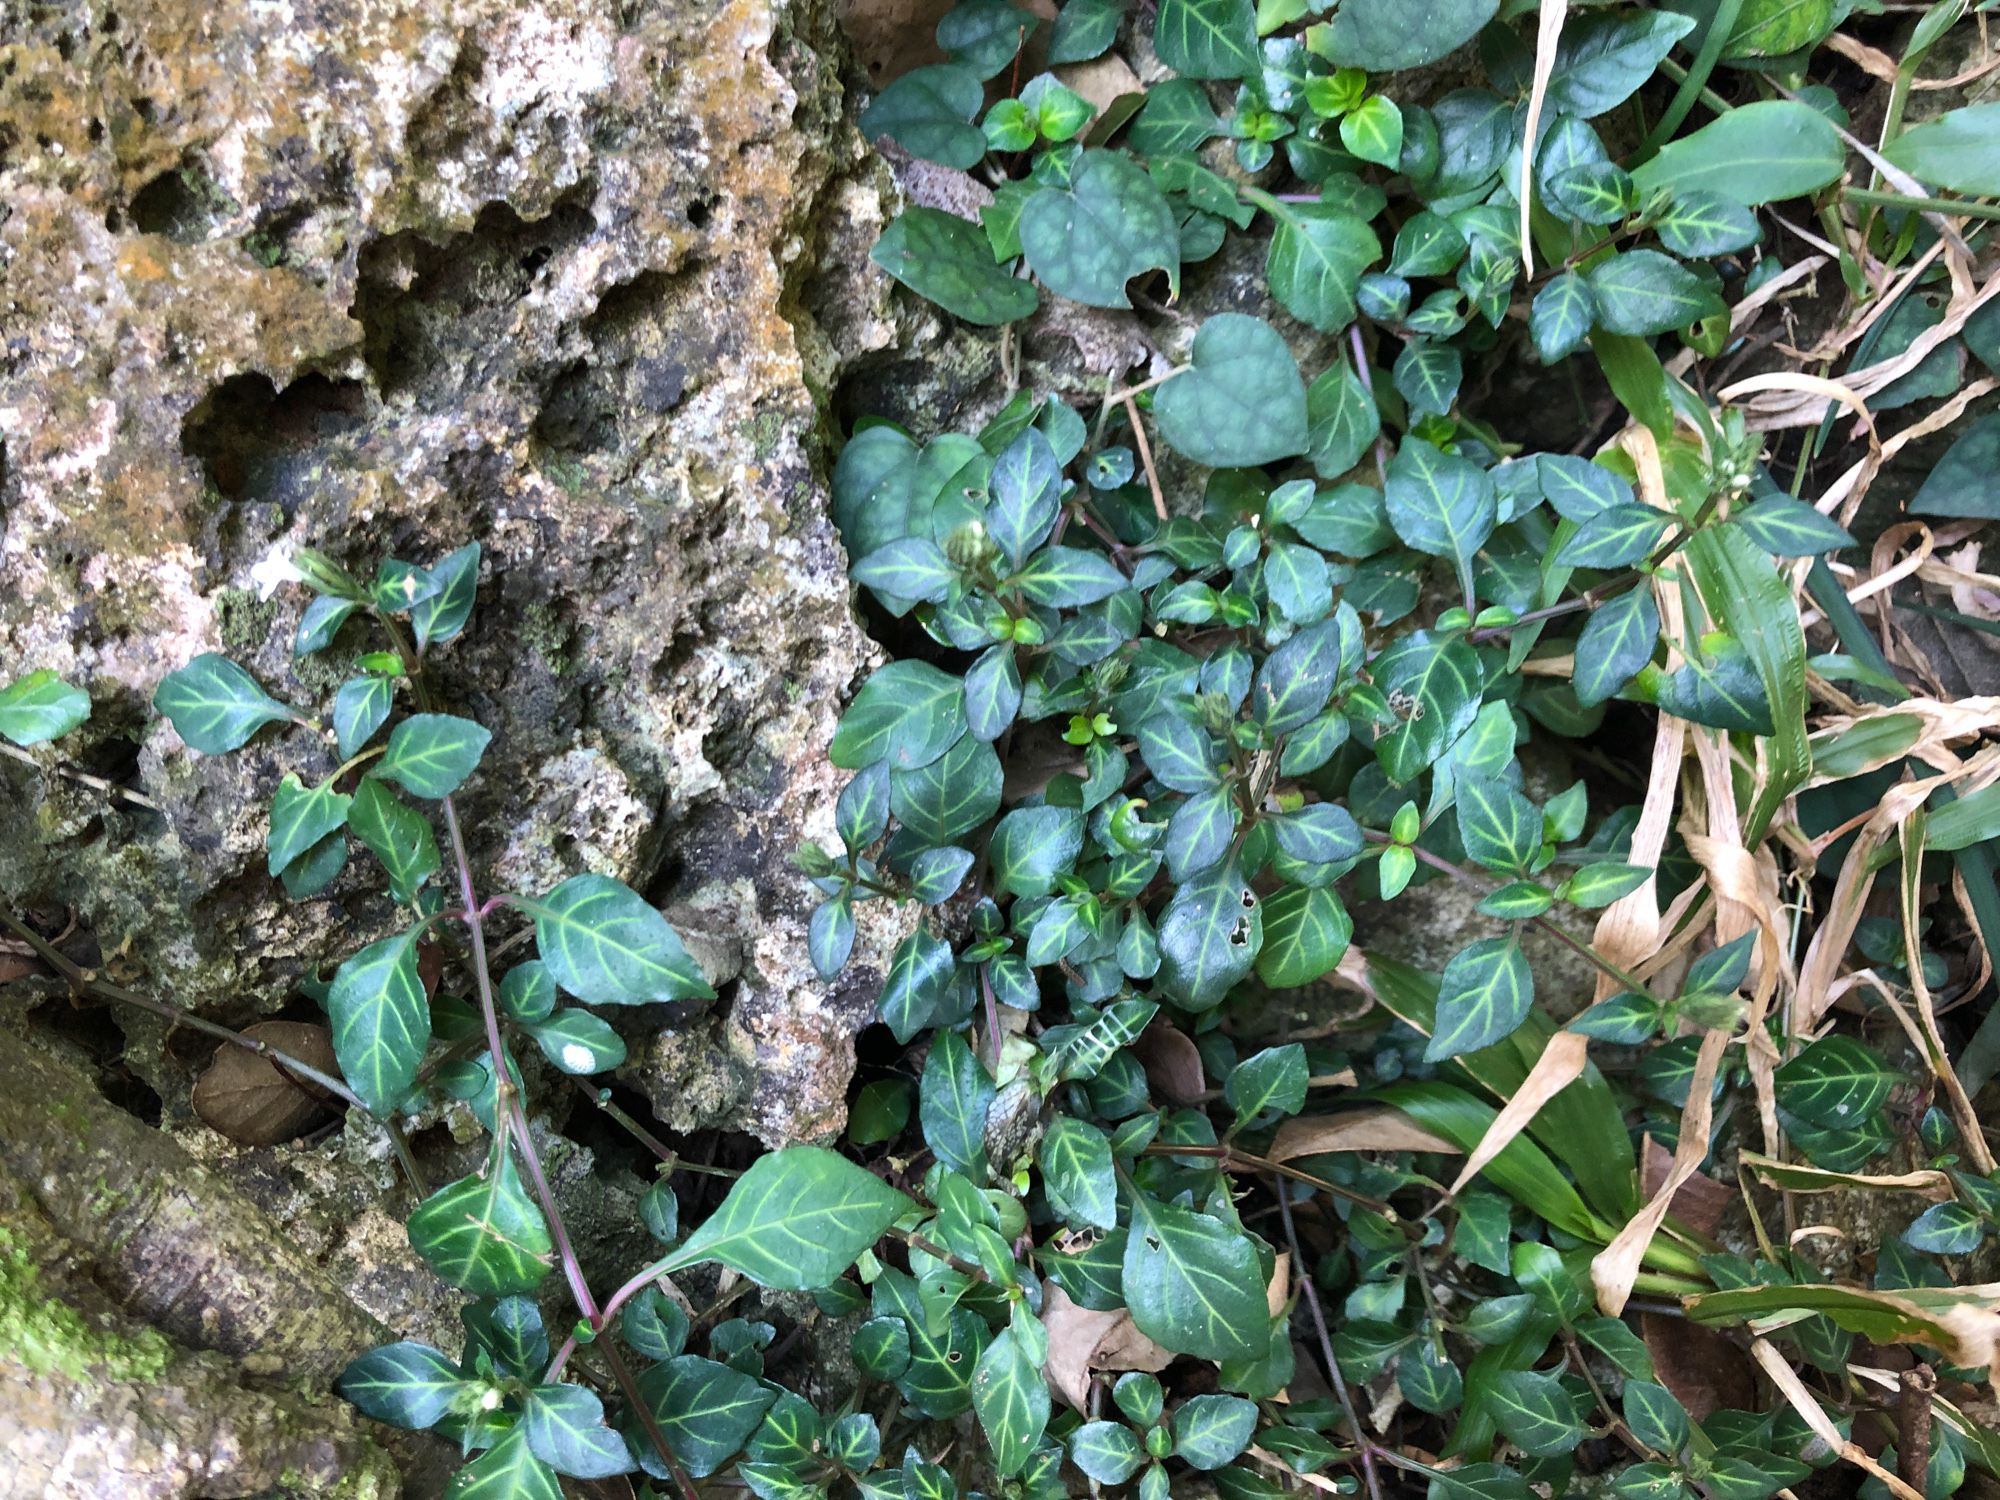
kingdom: Plantae
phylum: Tracheophyta
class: Magnoliopsida
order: Lamiales
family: Acanthaceae
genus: Lepidagathis
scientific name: Lepidagathis inaequalis
